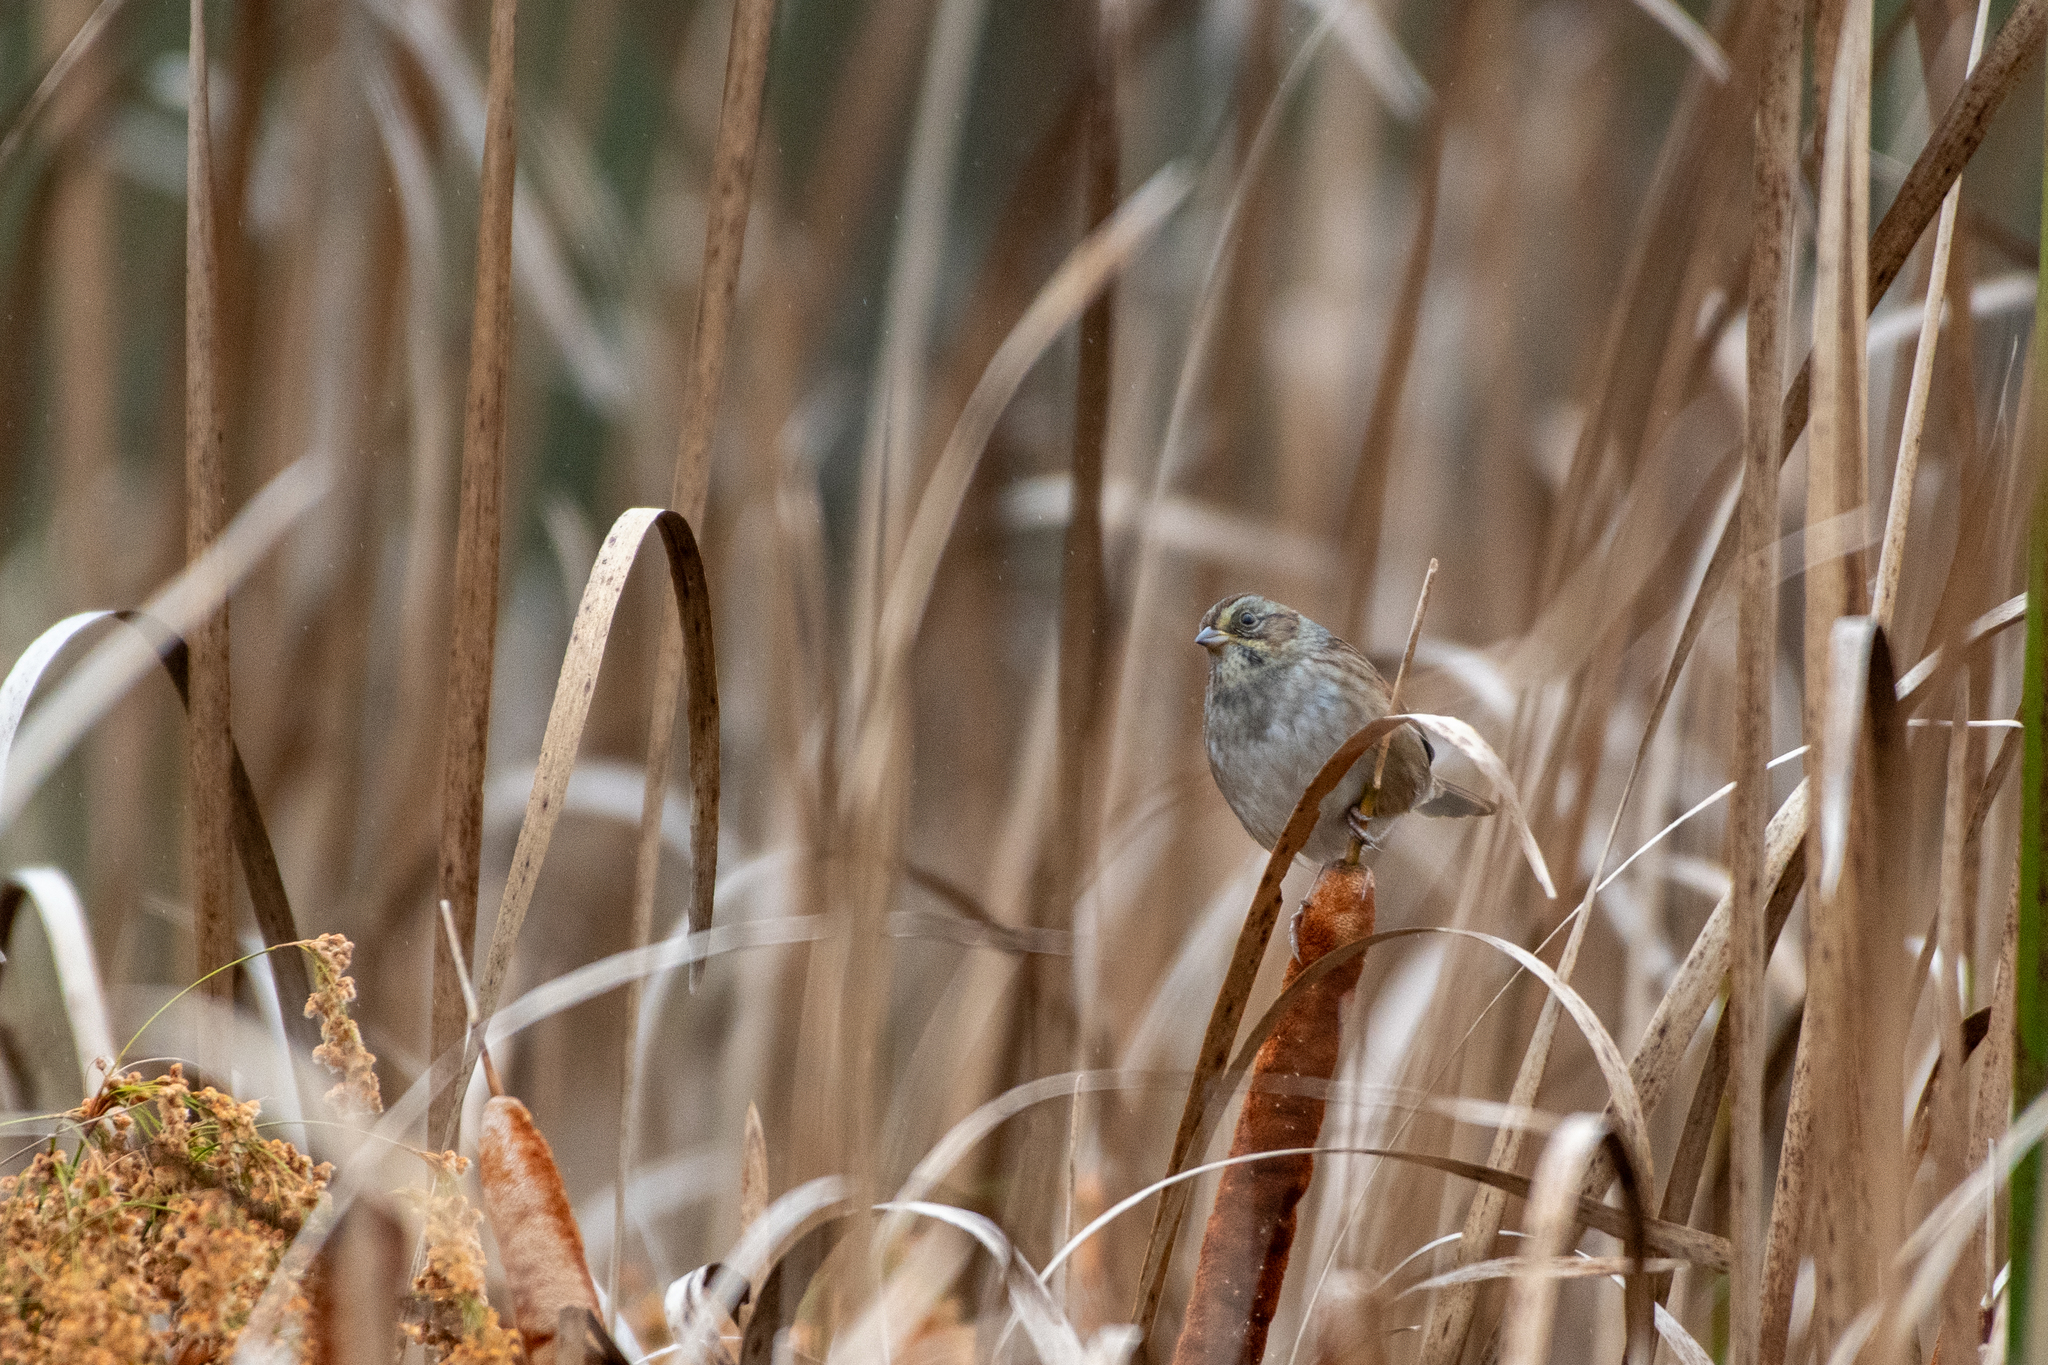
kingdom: Animalia
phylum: Chordata
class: Aves
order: Passeriformes
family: Passerellidae
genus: Melospiza
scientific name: Melospiza georgiana
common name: Swamp sparrow
